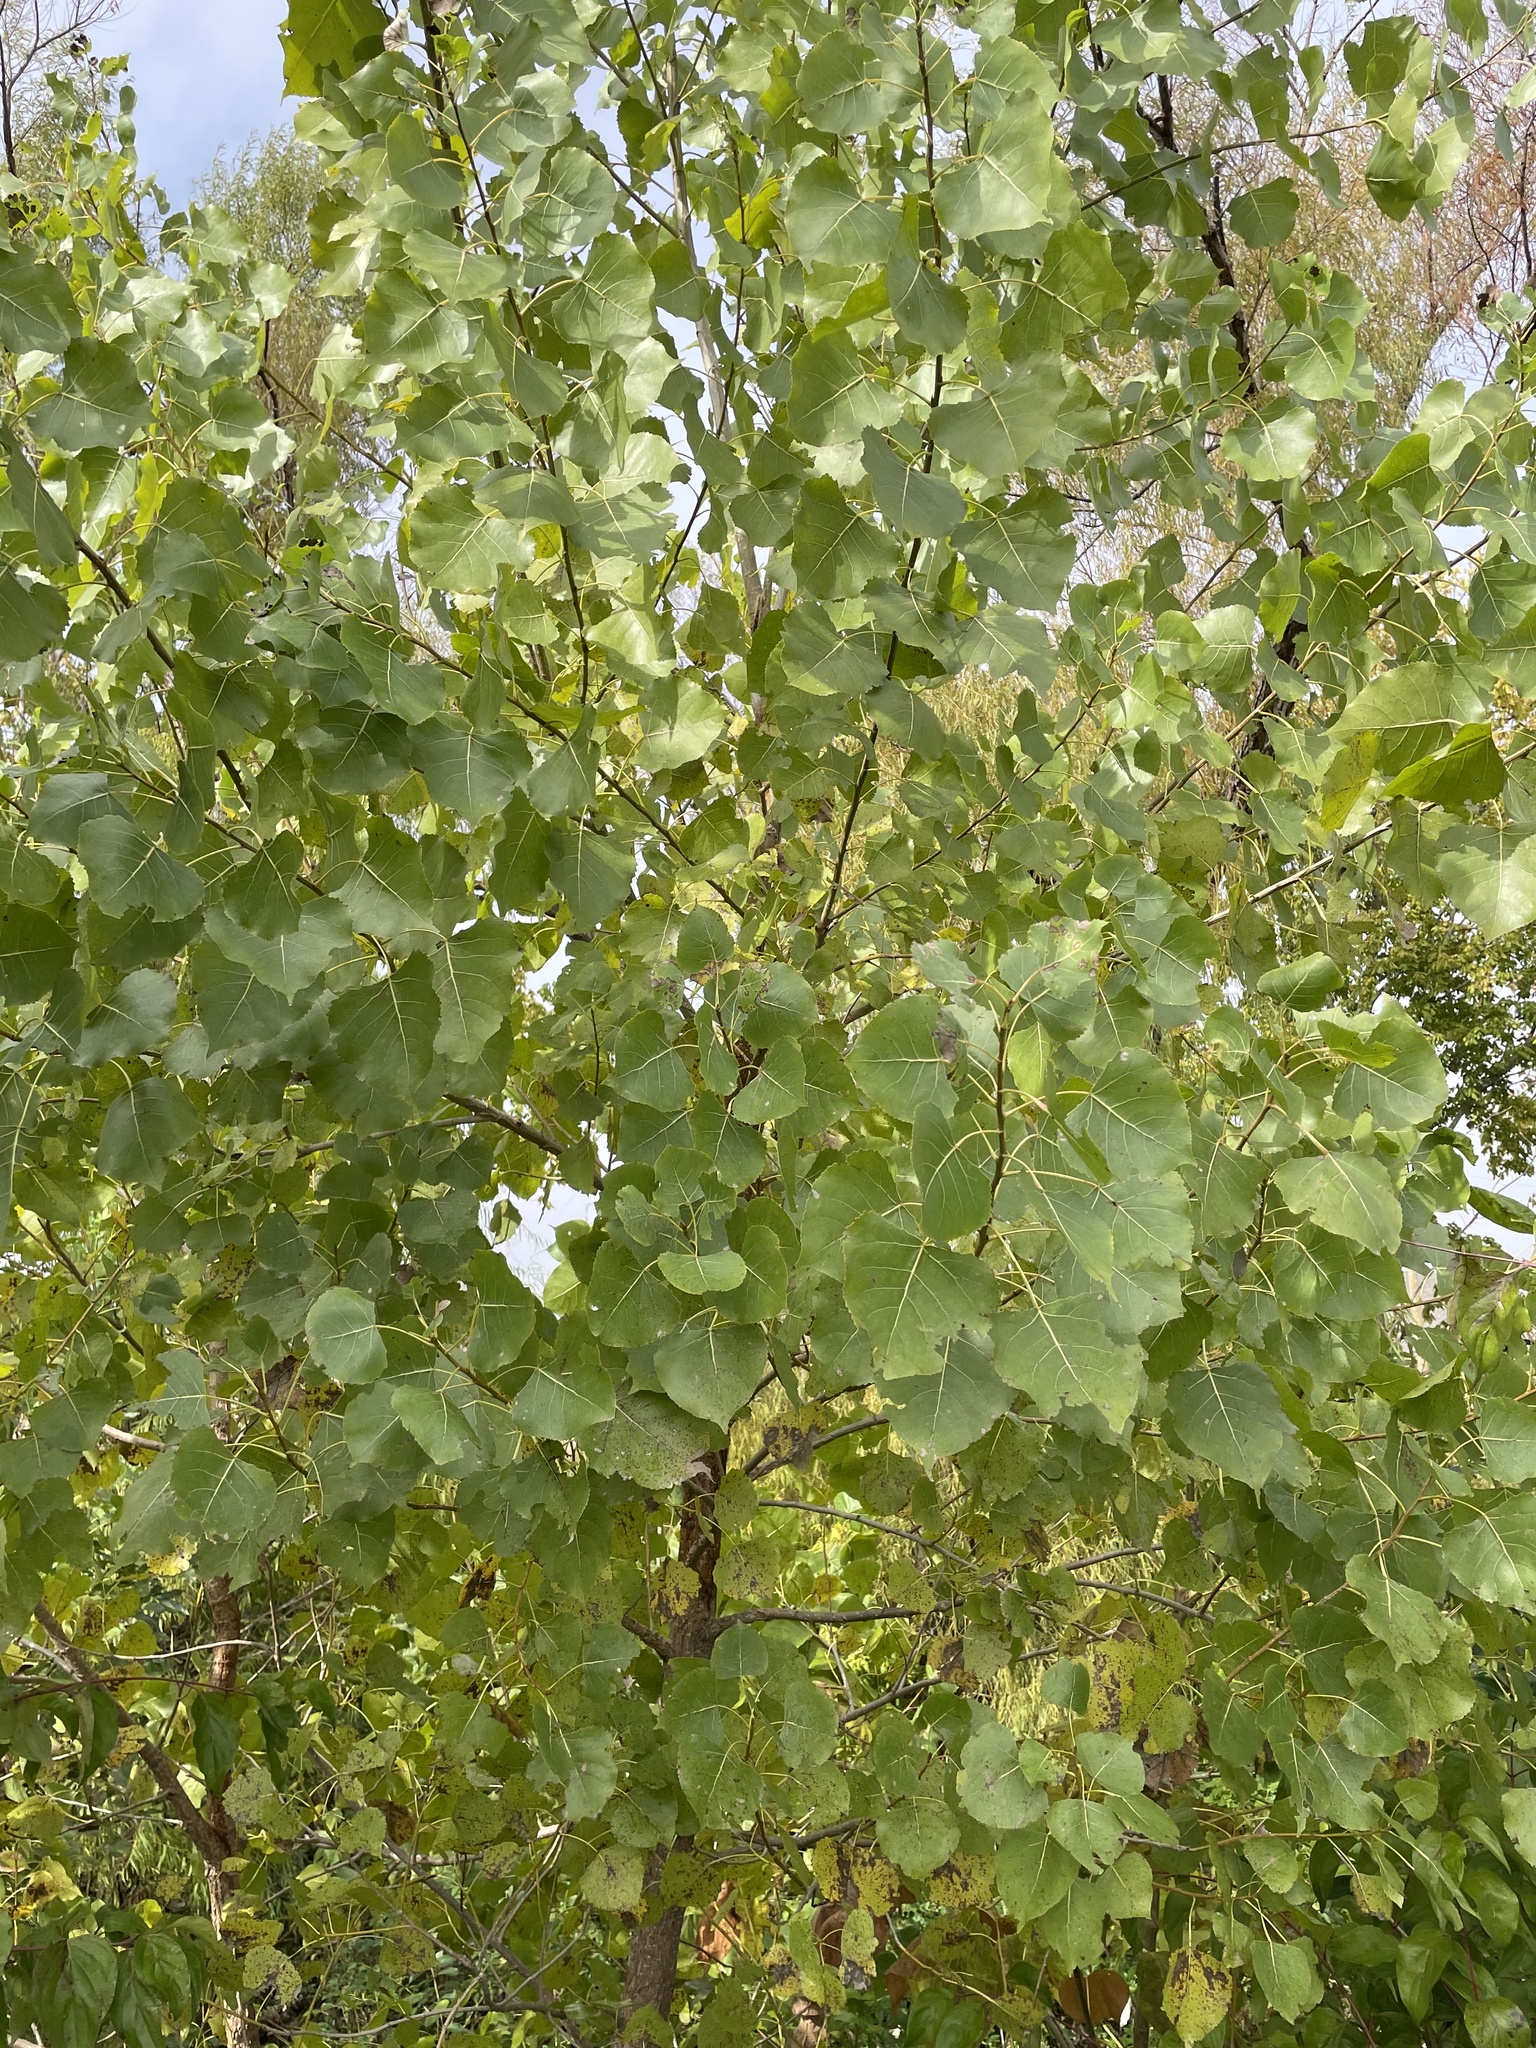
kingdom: Plantae
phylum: Tracheophyta
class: Magnoliopsida
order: Malpighiales
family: Salicaceae
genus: Populus
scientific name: Populus deltoides
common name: Eastern cottonwood
